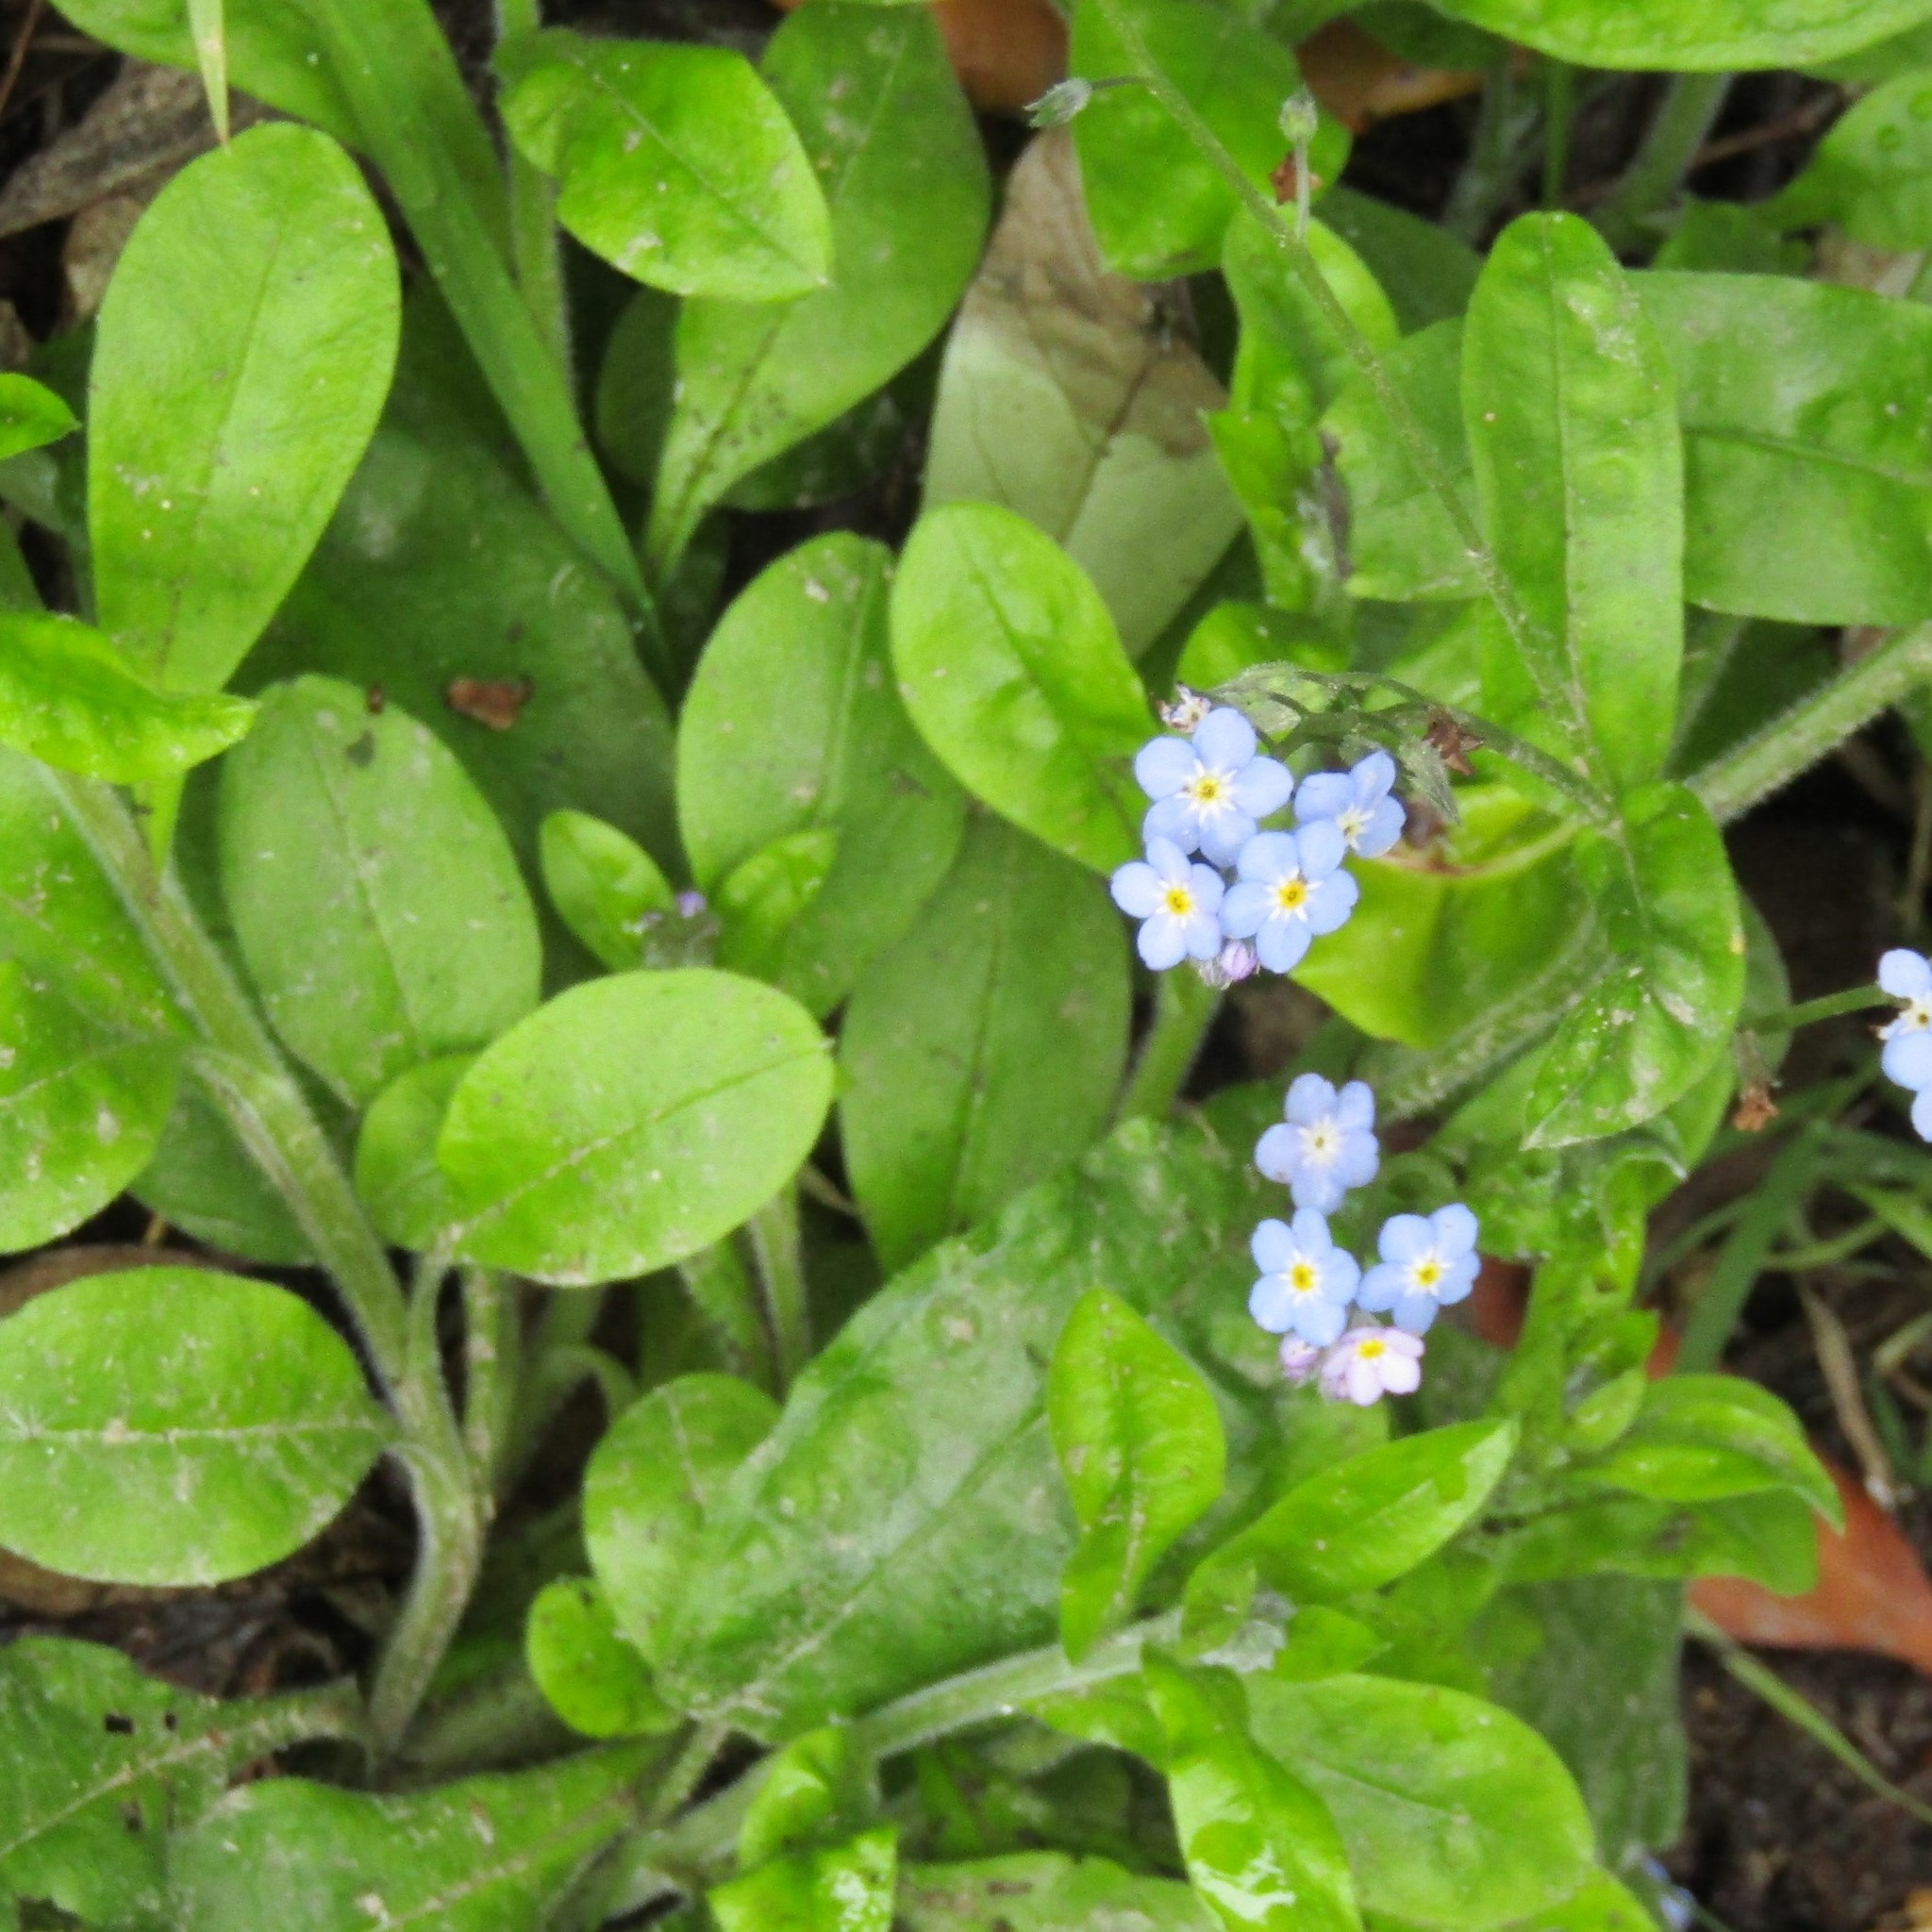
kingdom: Plantae
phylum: Tracheophyta
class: Magnoliopsida
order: Boraginales
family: Boraginaceae
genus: Myosotis
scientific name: Myosotis sylvatica
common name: Wood forget-me-not
